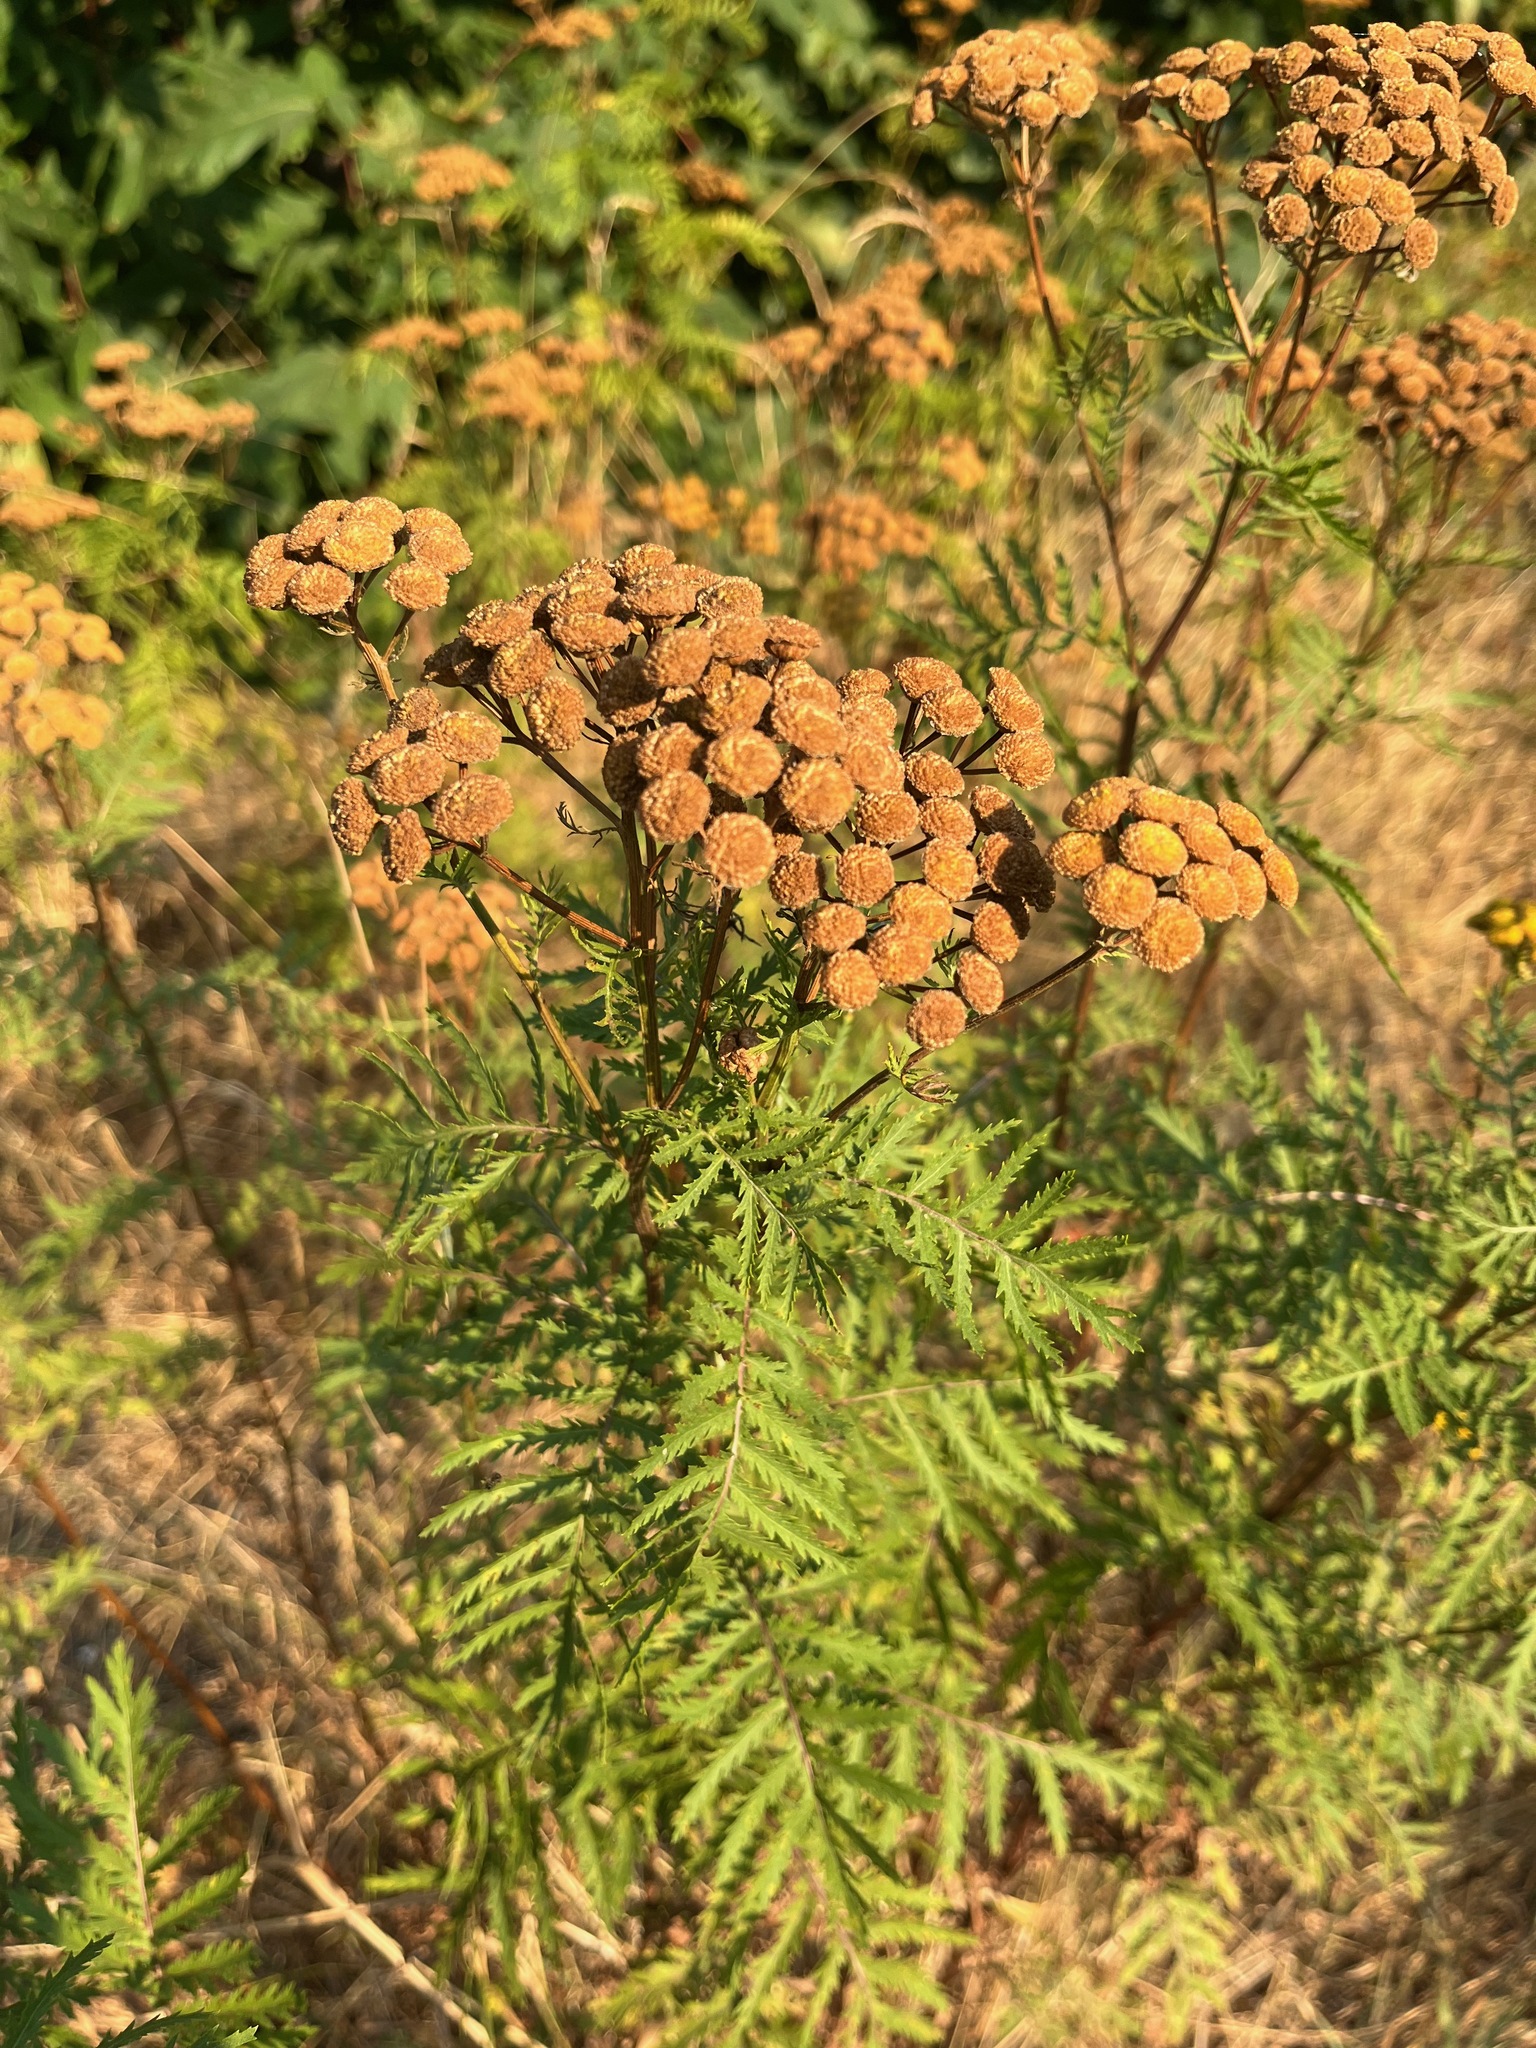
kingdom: Plantae
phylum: Tracheophyta
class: Magnoliopsida
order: Asterales
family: Asteraceae
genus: Tanacetum
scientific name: Tanacetum vulgare
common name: Common tansy
